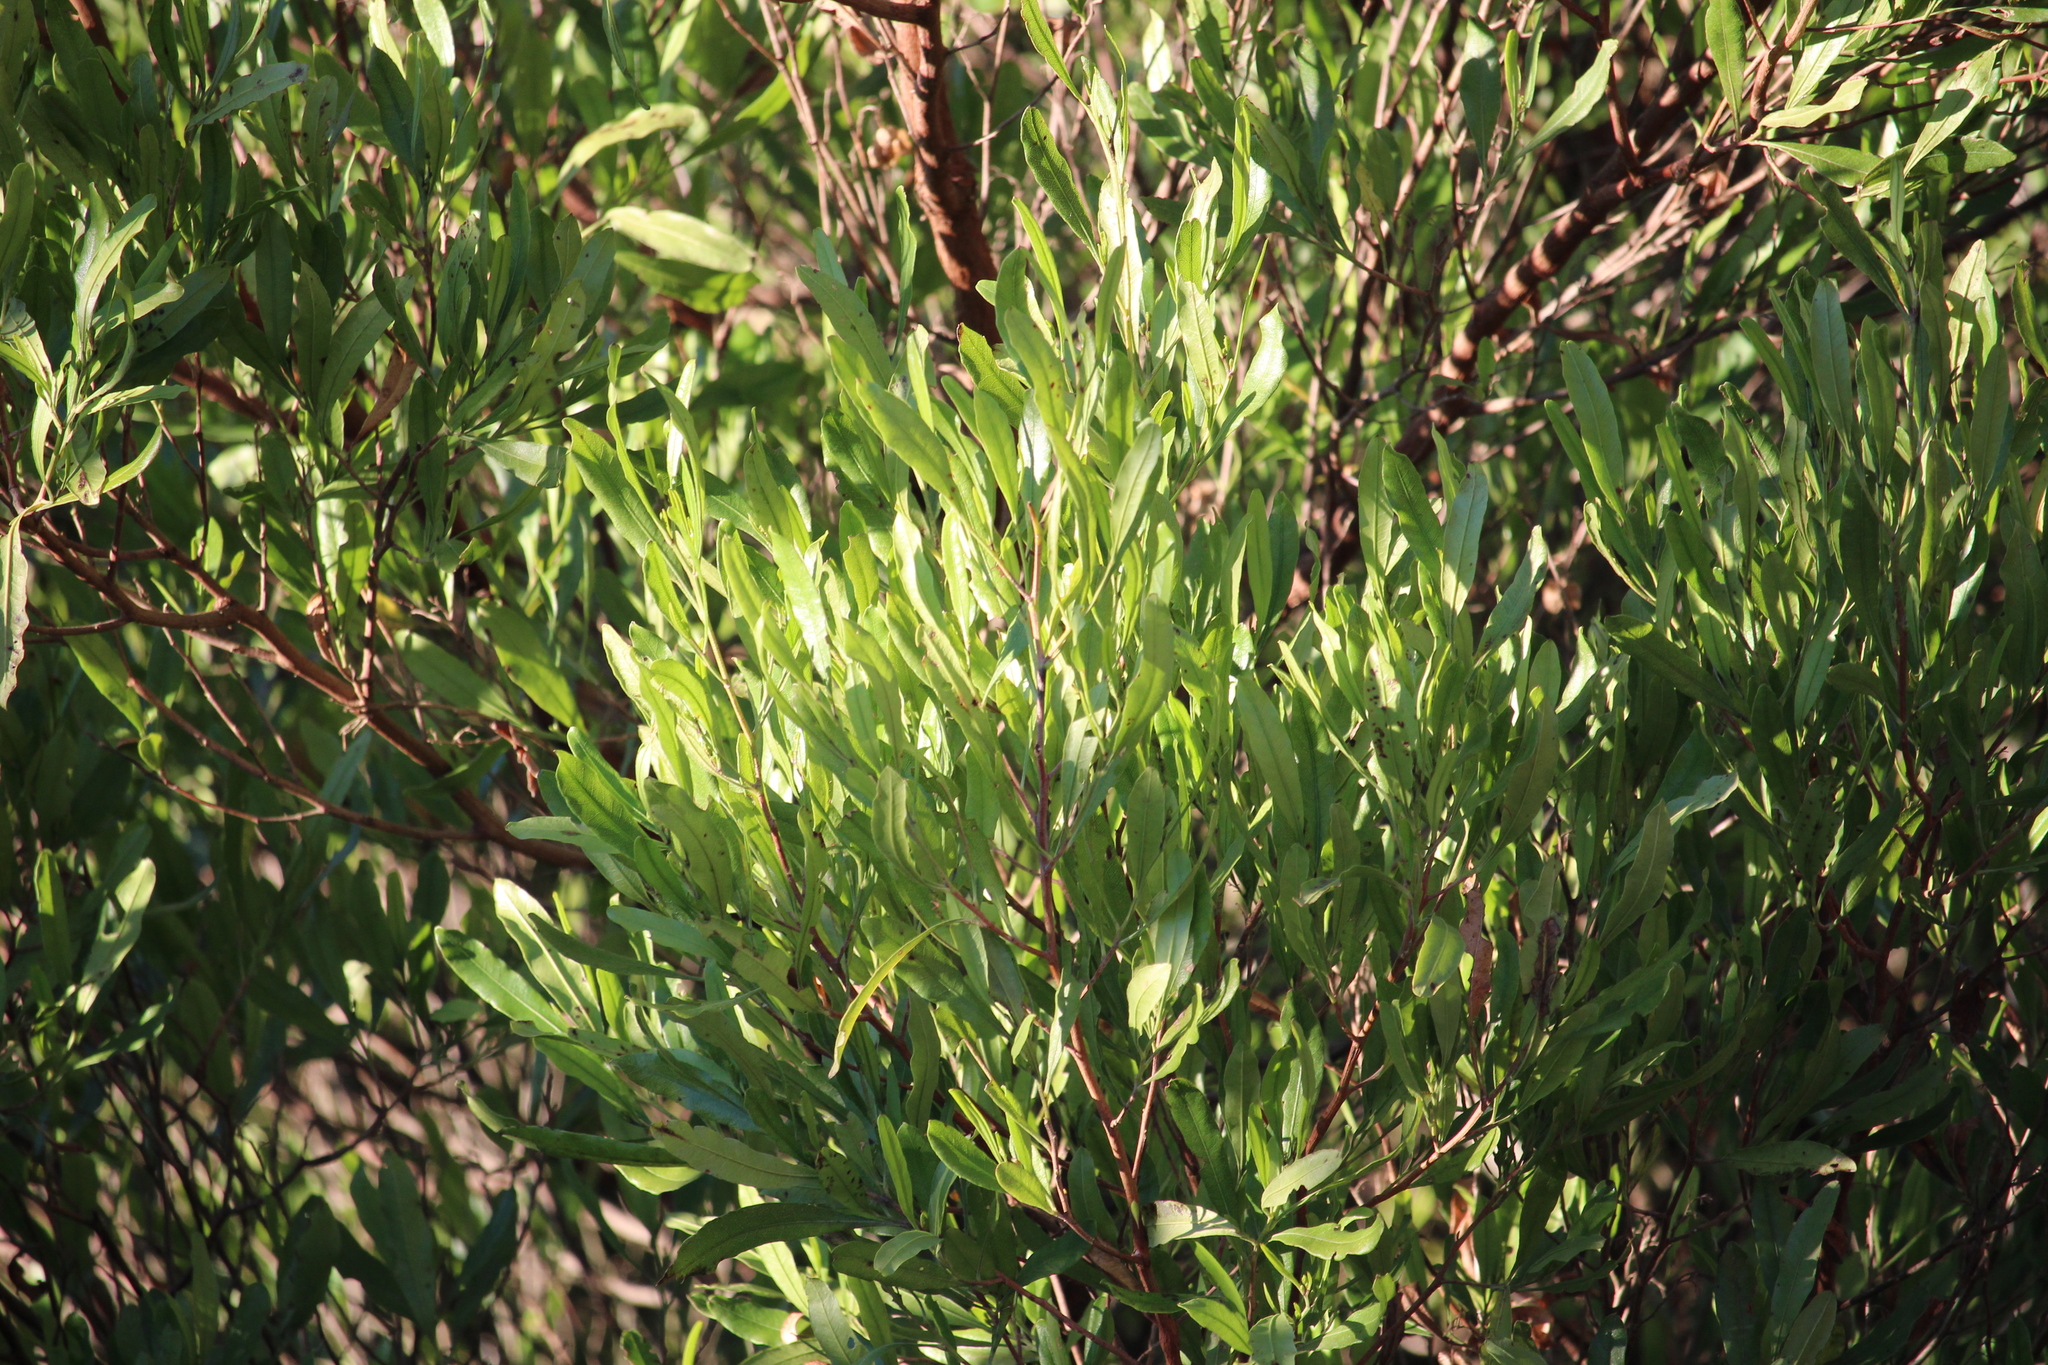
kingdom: Plantae
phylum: Tracheophyta
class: Magnoliopsida
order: Sapindales
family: Sapindaceae
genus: Dodonaea
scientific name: Dodonaea viscosa
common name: Hopbush
